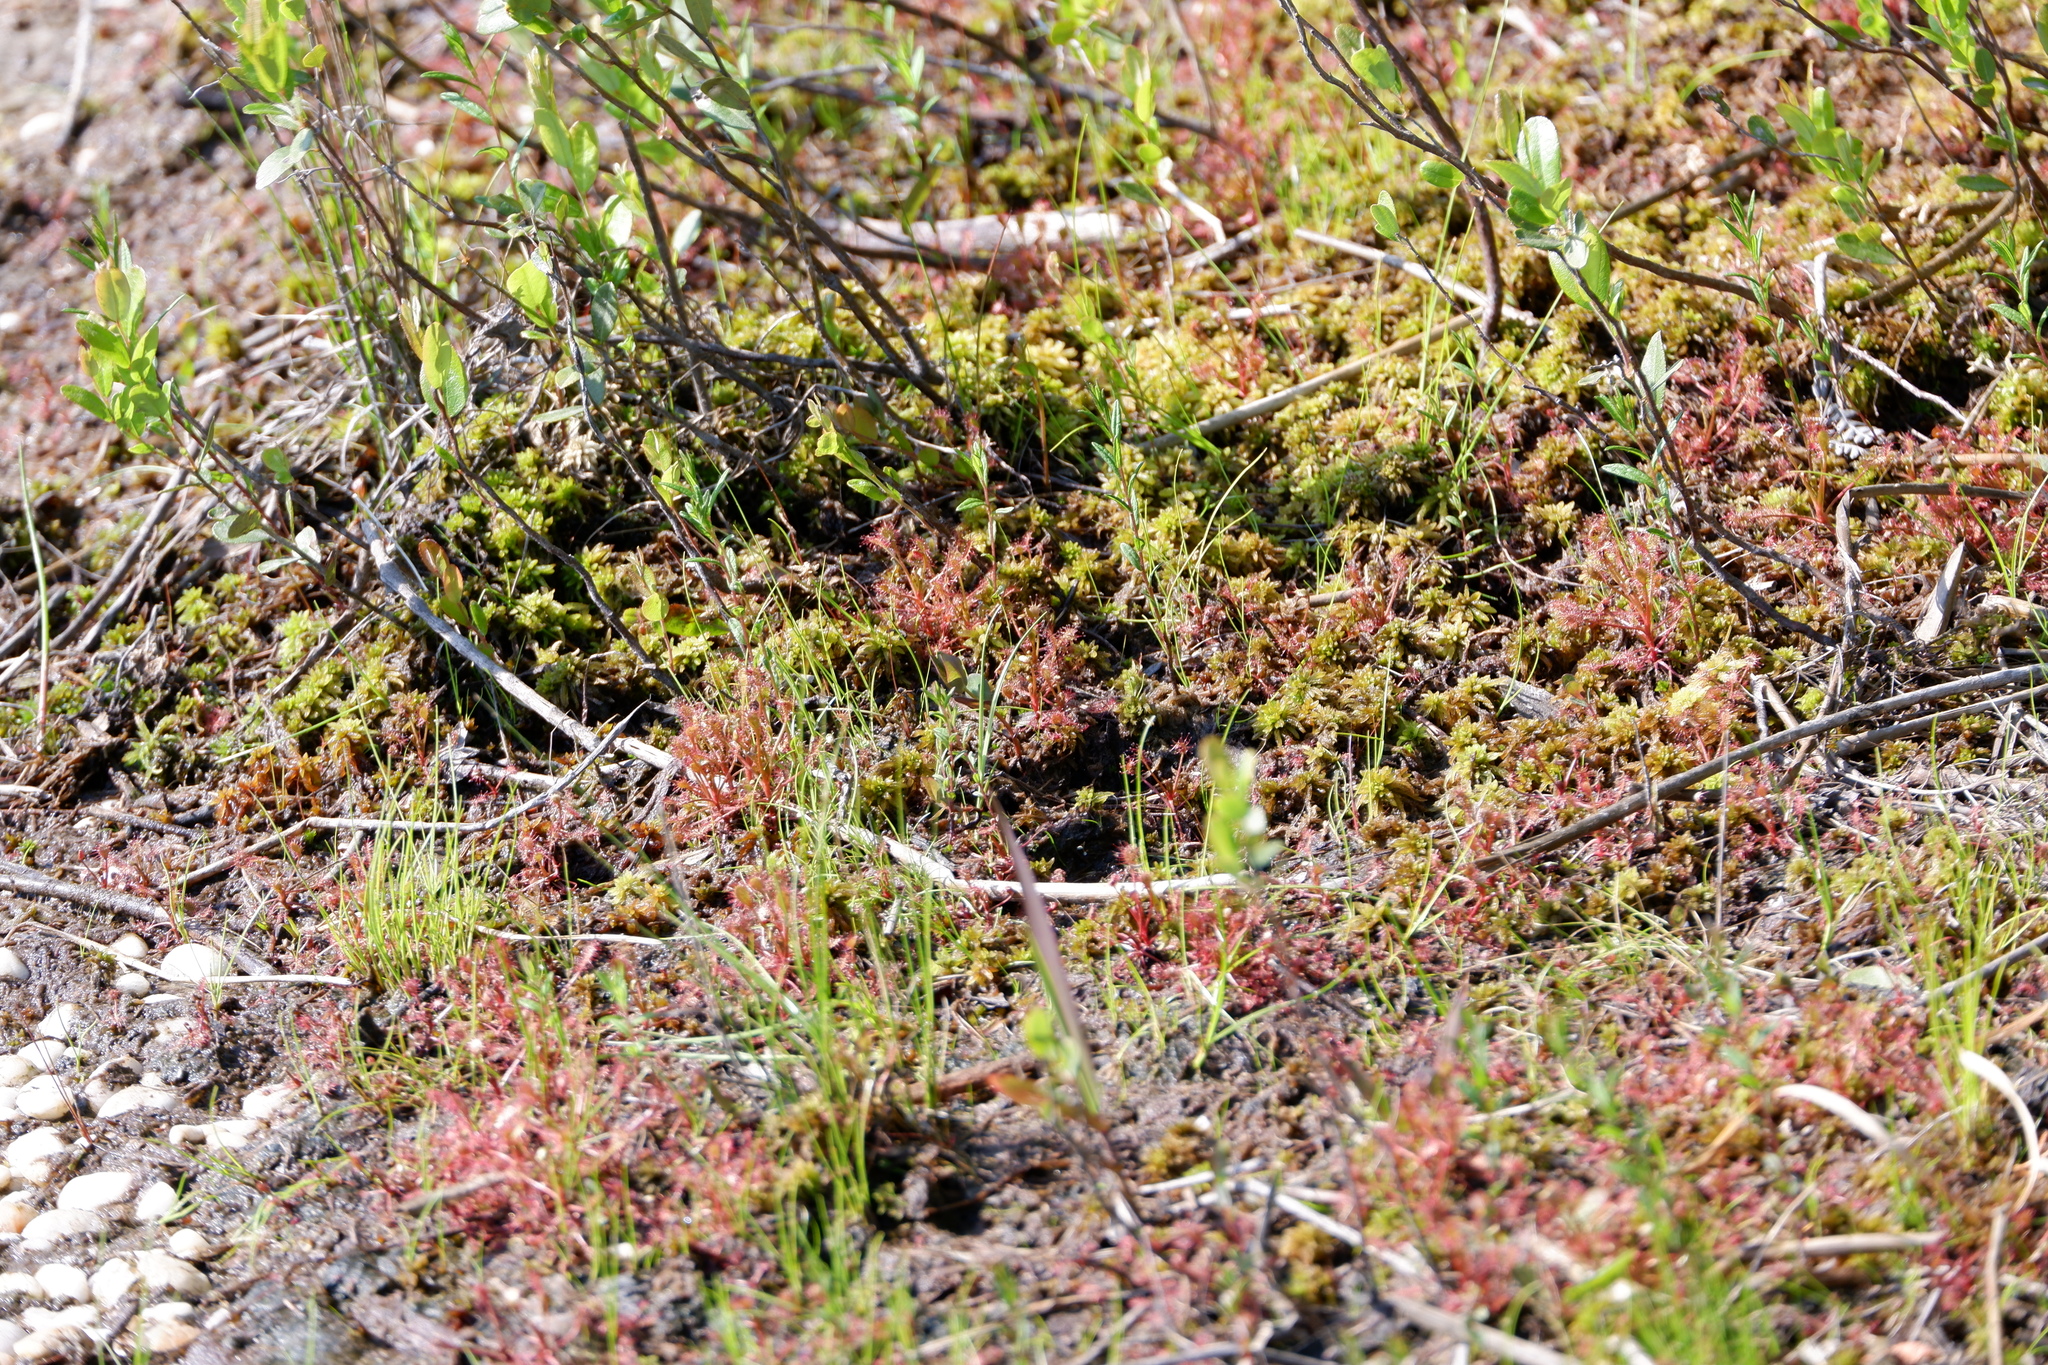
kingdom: Plantae
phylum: Tracheophyta
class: Magnoliopsida
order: Caryophyllales
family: Droseraceae
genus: Drosera
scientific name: Drosera intermedia
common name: Oblong-leaved sundew
